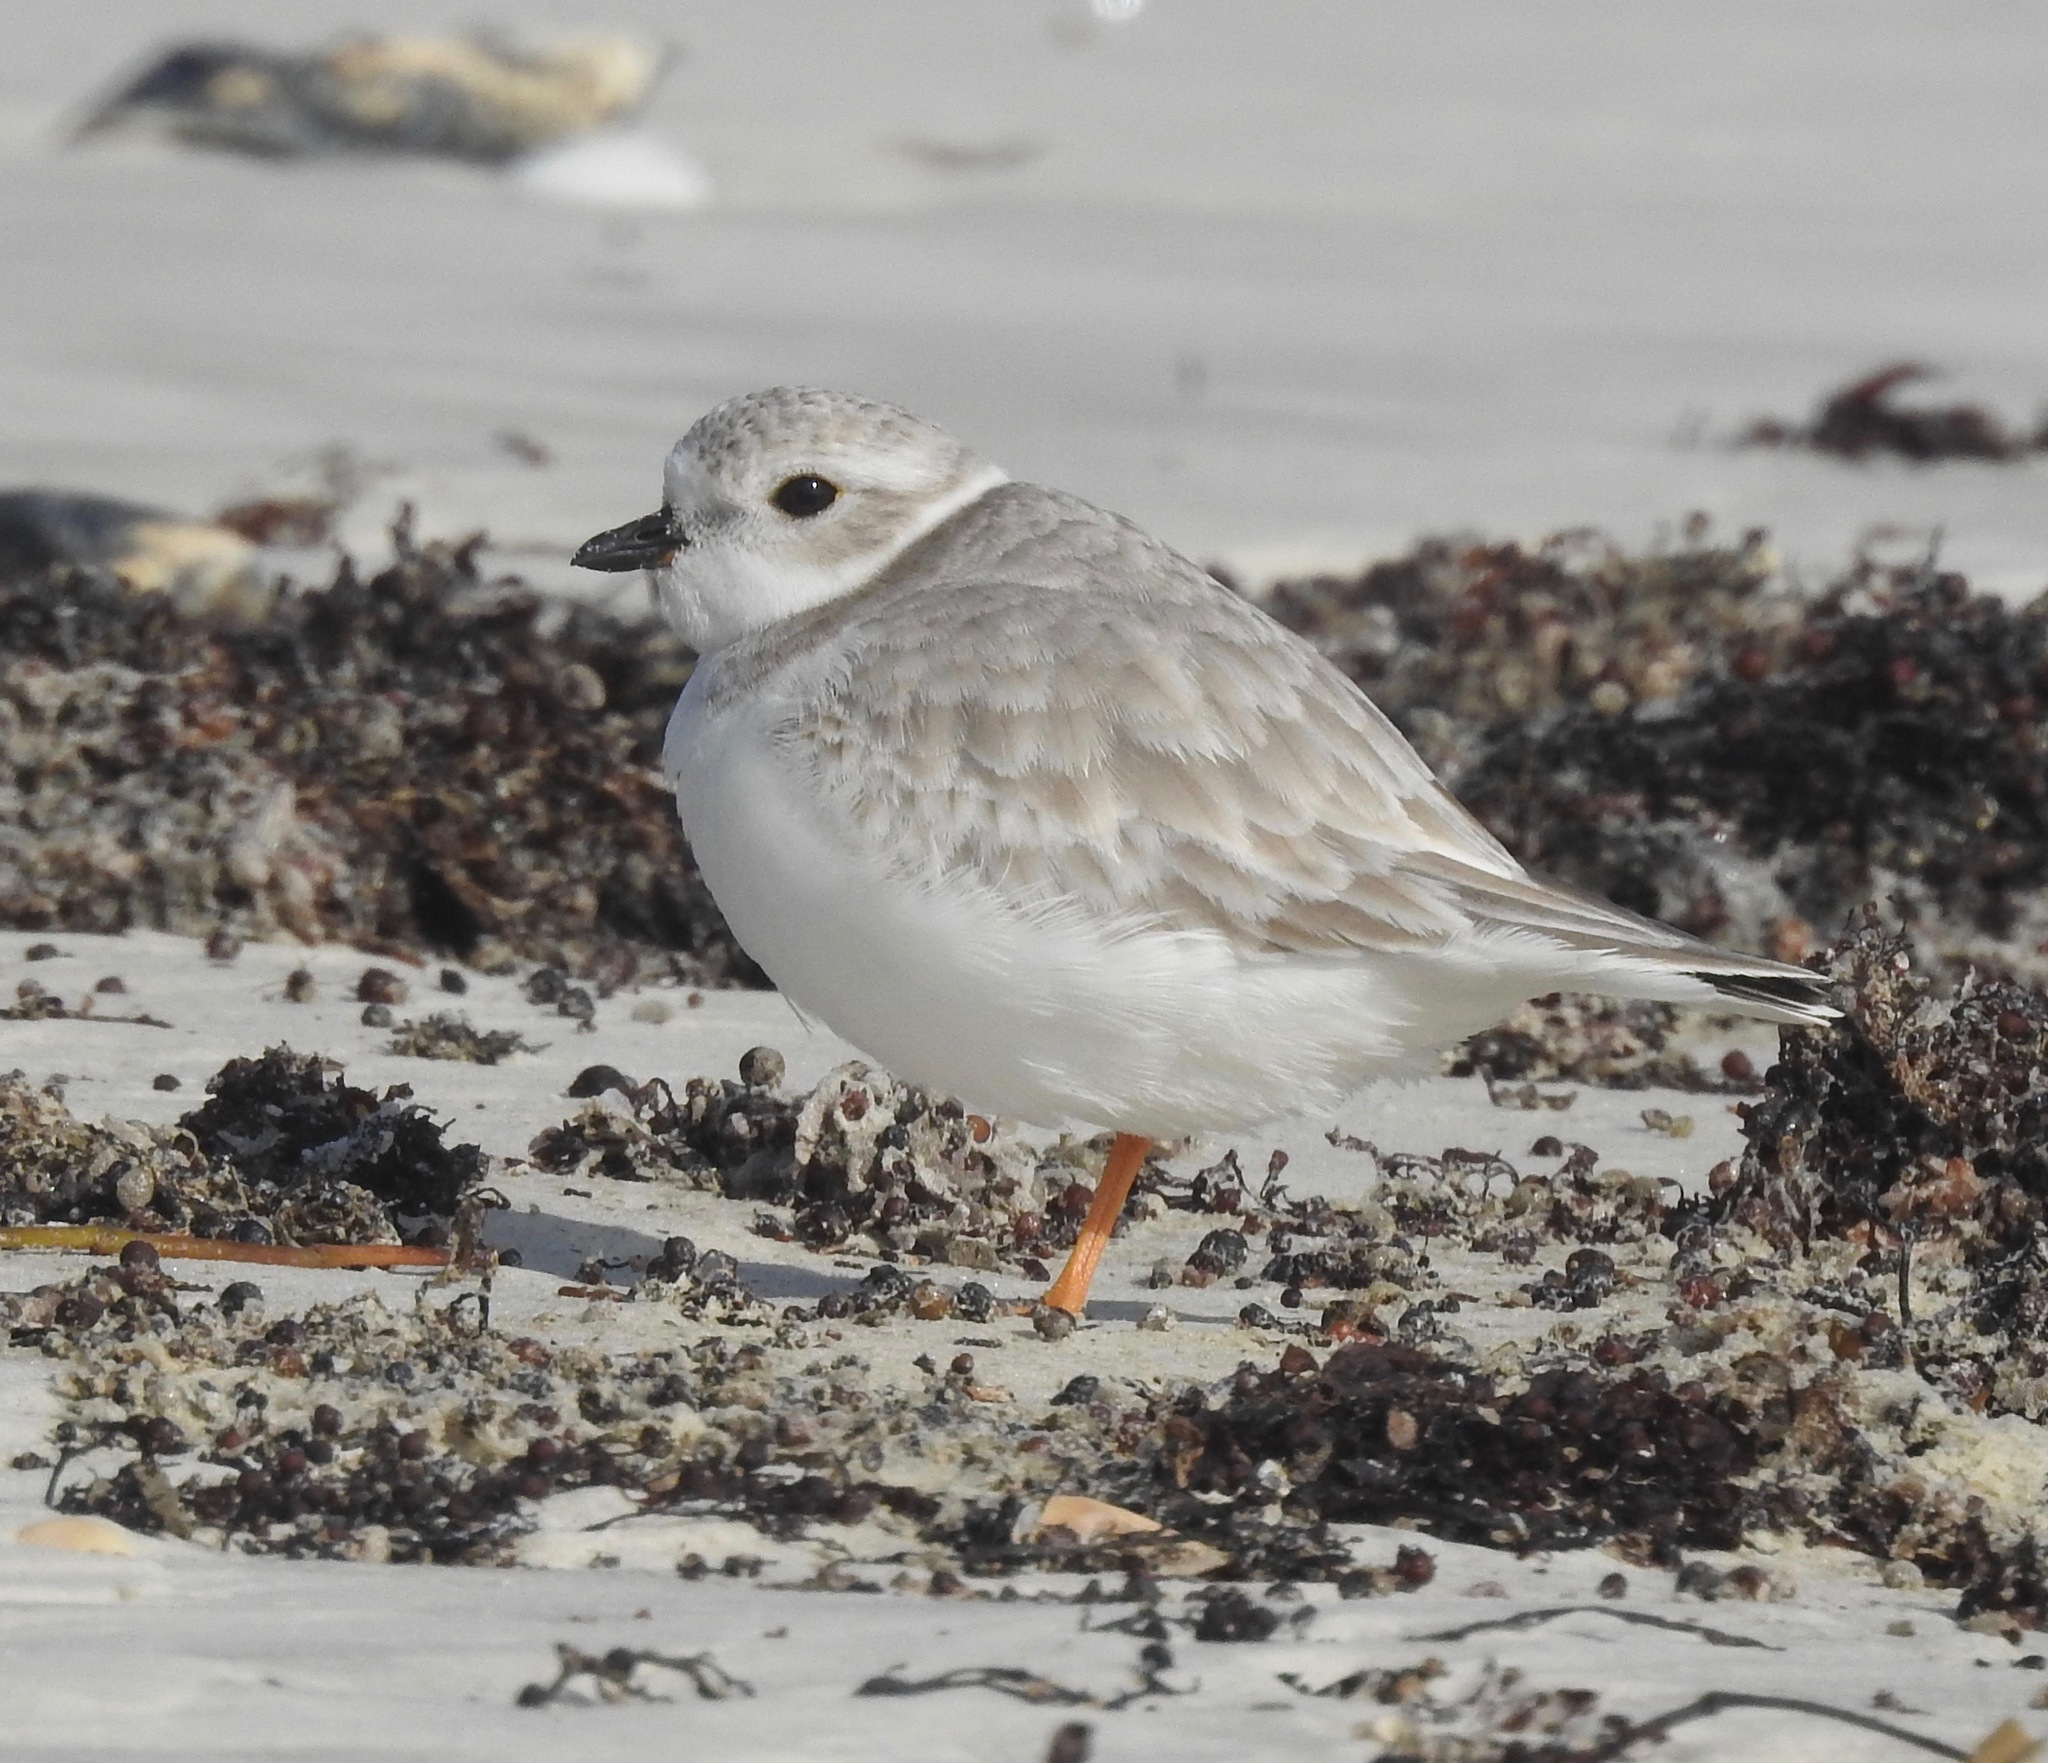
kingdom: Animalia
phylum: Chordata
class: Aves
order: Charadriiformes
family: Charadriidae
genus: Charadrius
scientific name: Charadrius melodus
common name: Piping plover
